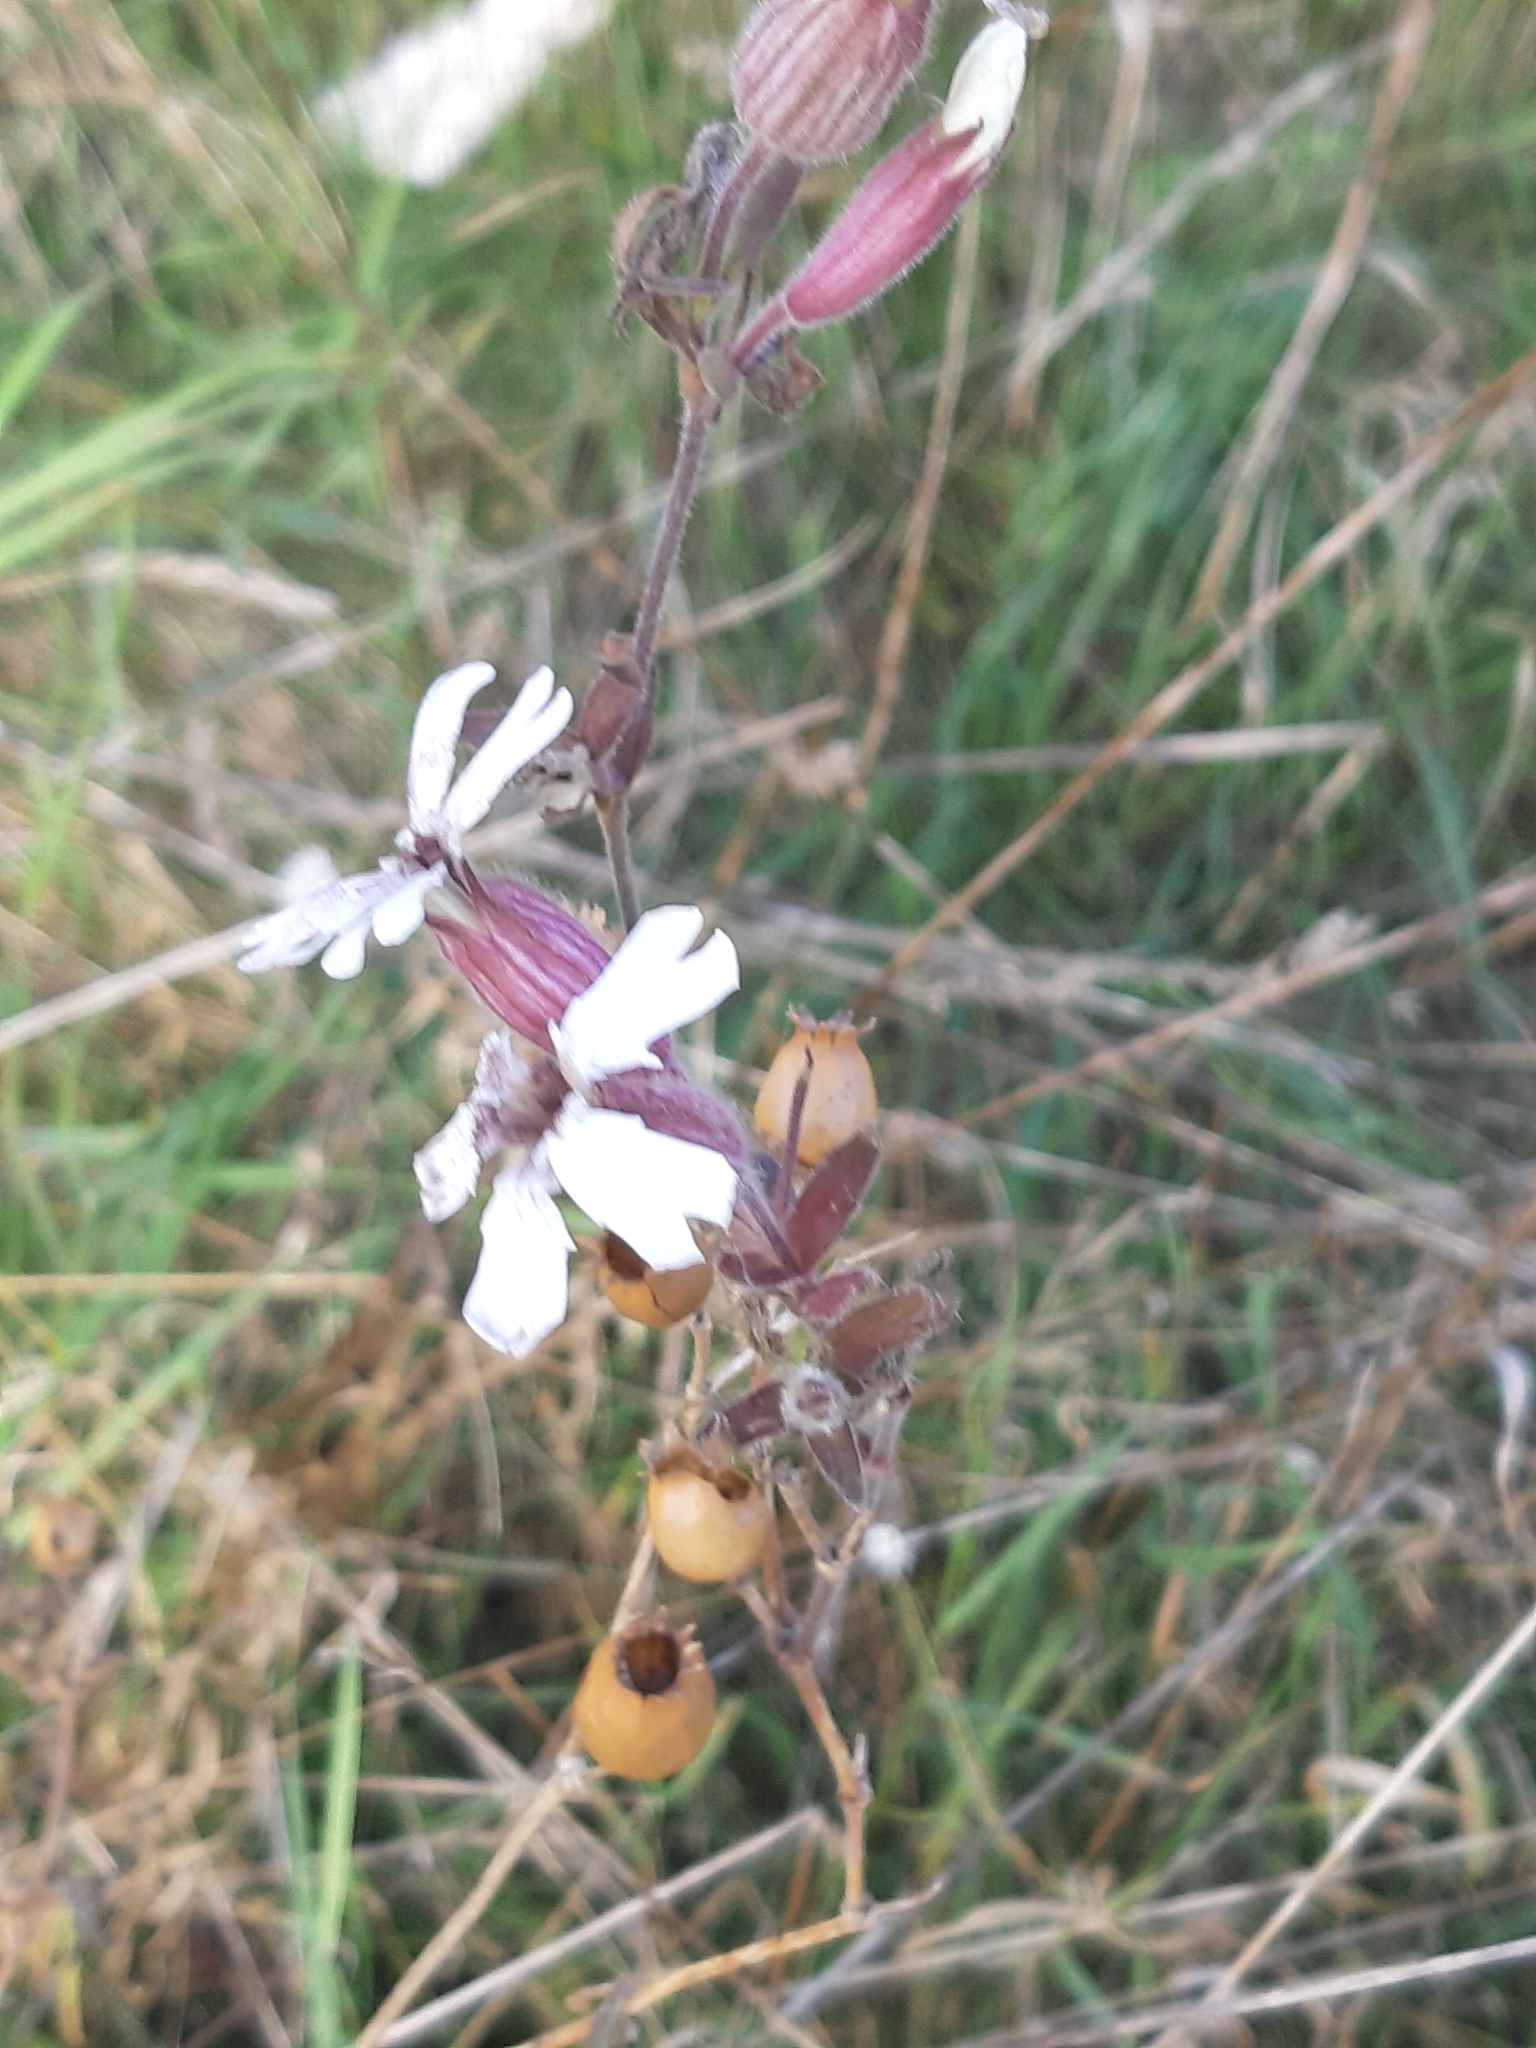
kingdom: Plantae
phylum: Tracheophyta
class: Magnoliopsida
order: Caryophyllales
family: Caryophyllaceae
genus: Silene
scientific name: Silene latifolia
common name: White campion
